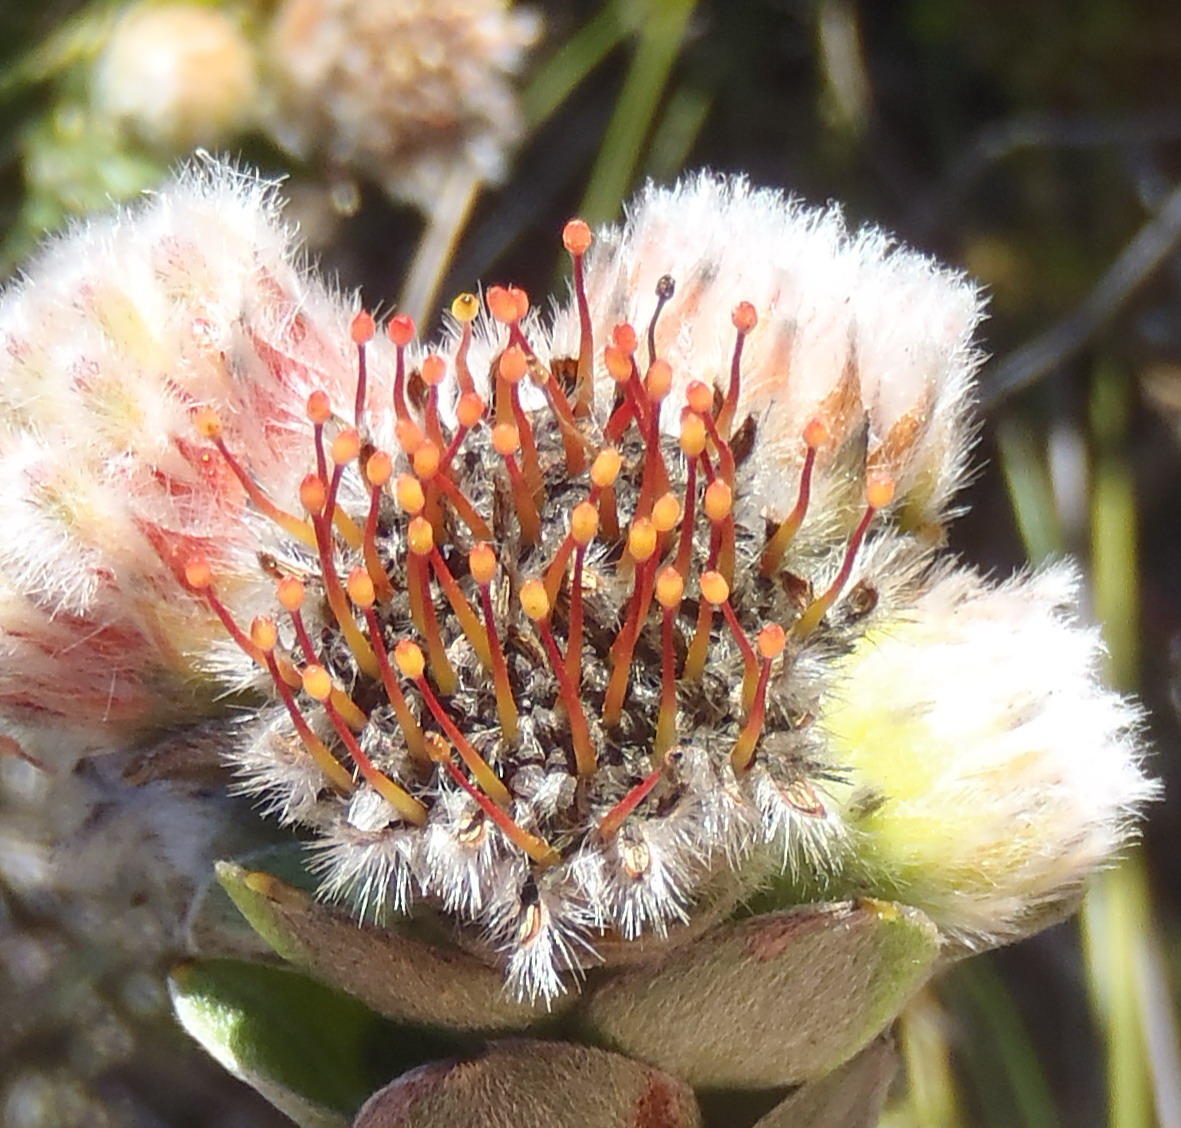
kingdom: Plantae
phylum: Tracheophyta
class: Magnoliopsida
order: Proteales
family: Proteaceae
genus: Leucospermum
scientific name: Leucospermum truncatulum
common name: Oval-leaf pincushion
